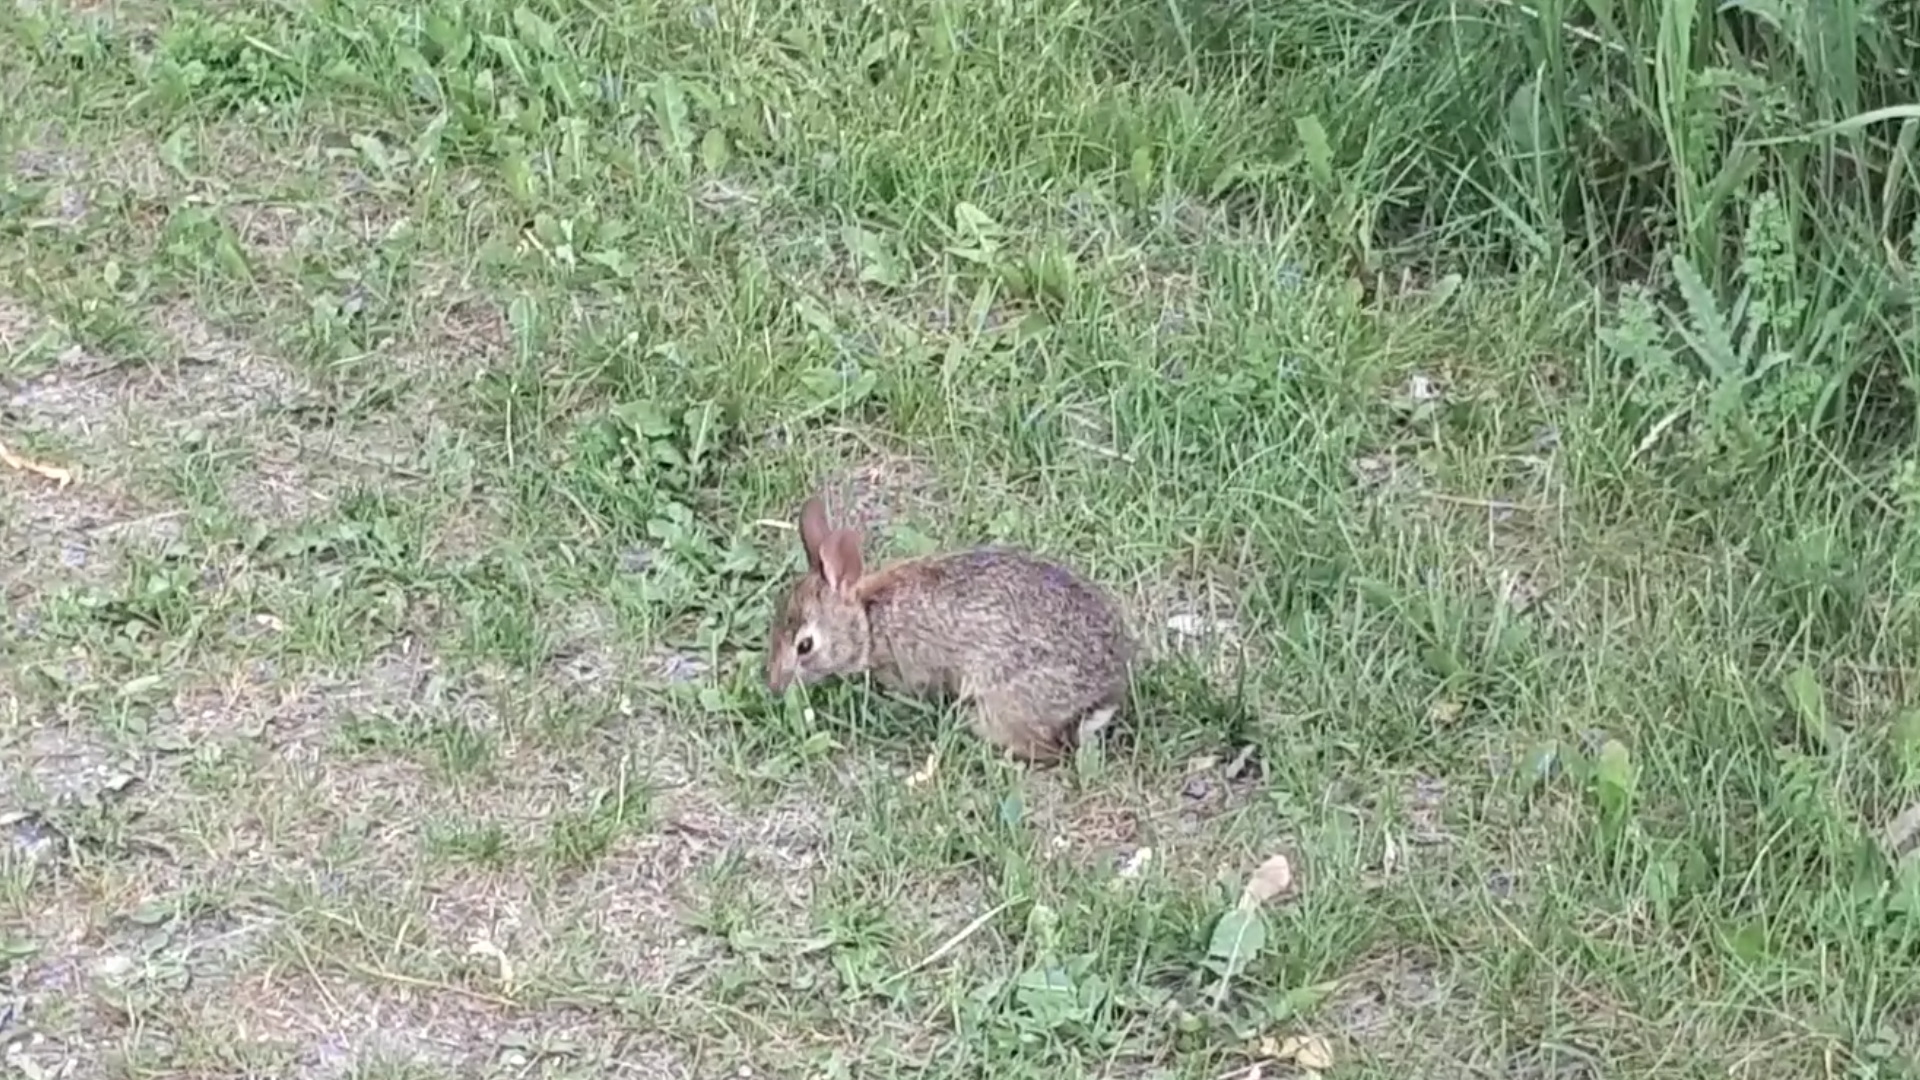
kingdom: Animalia
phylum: Chordata
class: Mammalia
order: Lagomorpha
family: Leporidae
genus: Sylvilagus
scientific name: Sylvilagus floridanus
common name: Eastern cottontail
